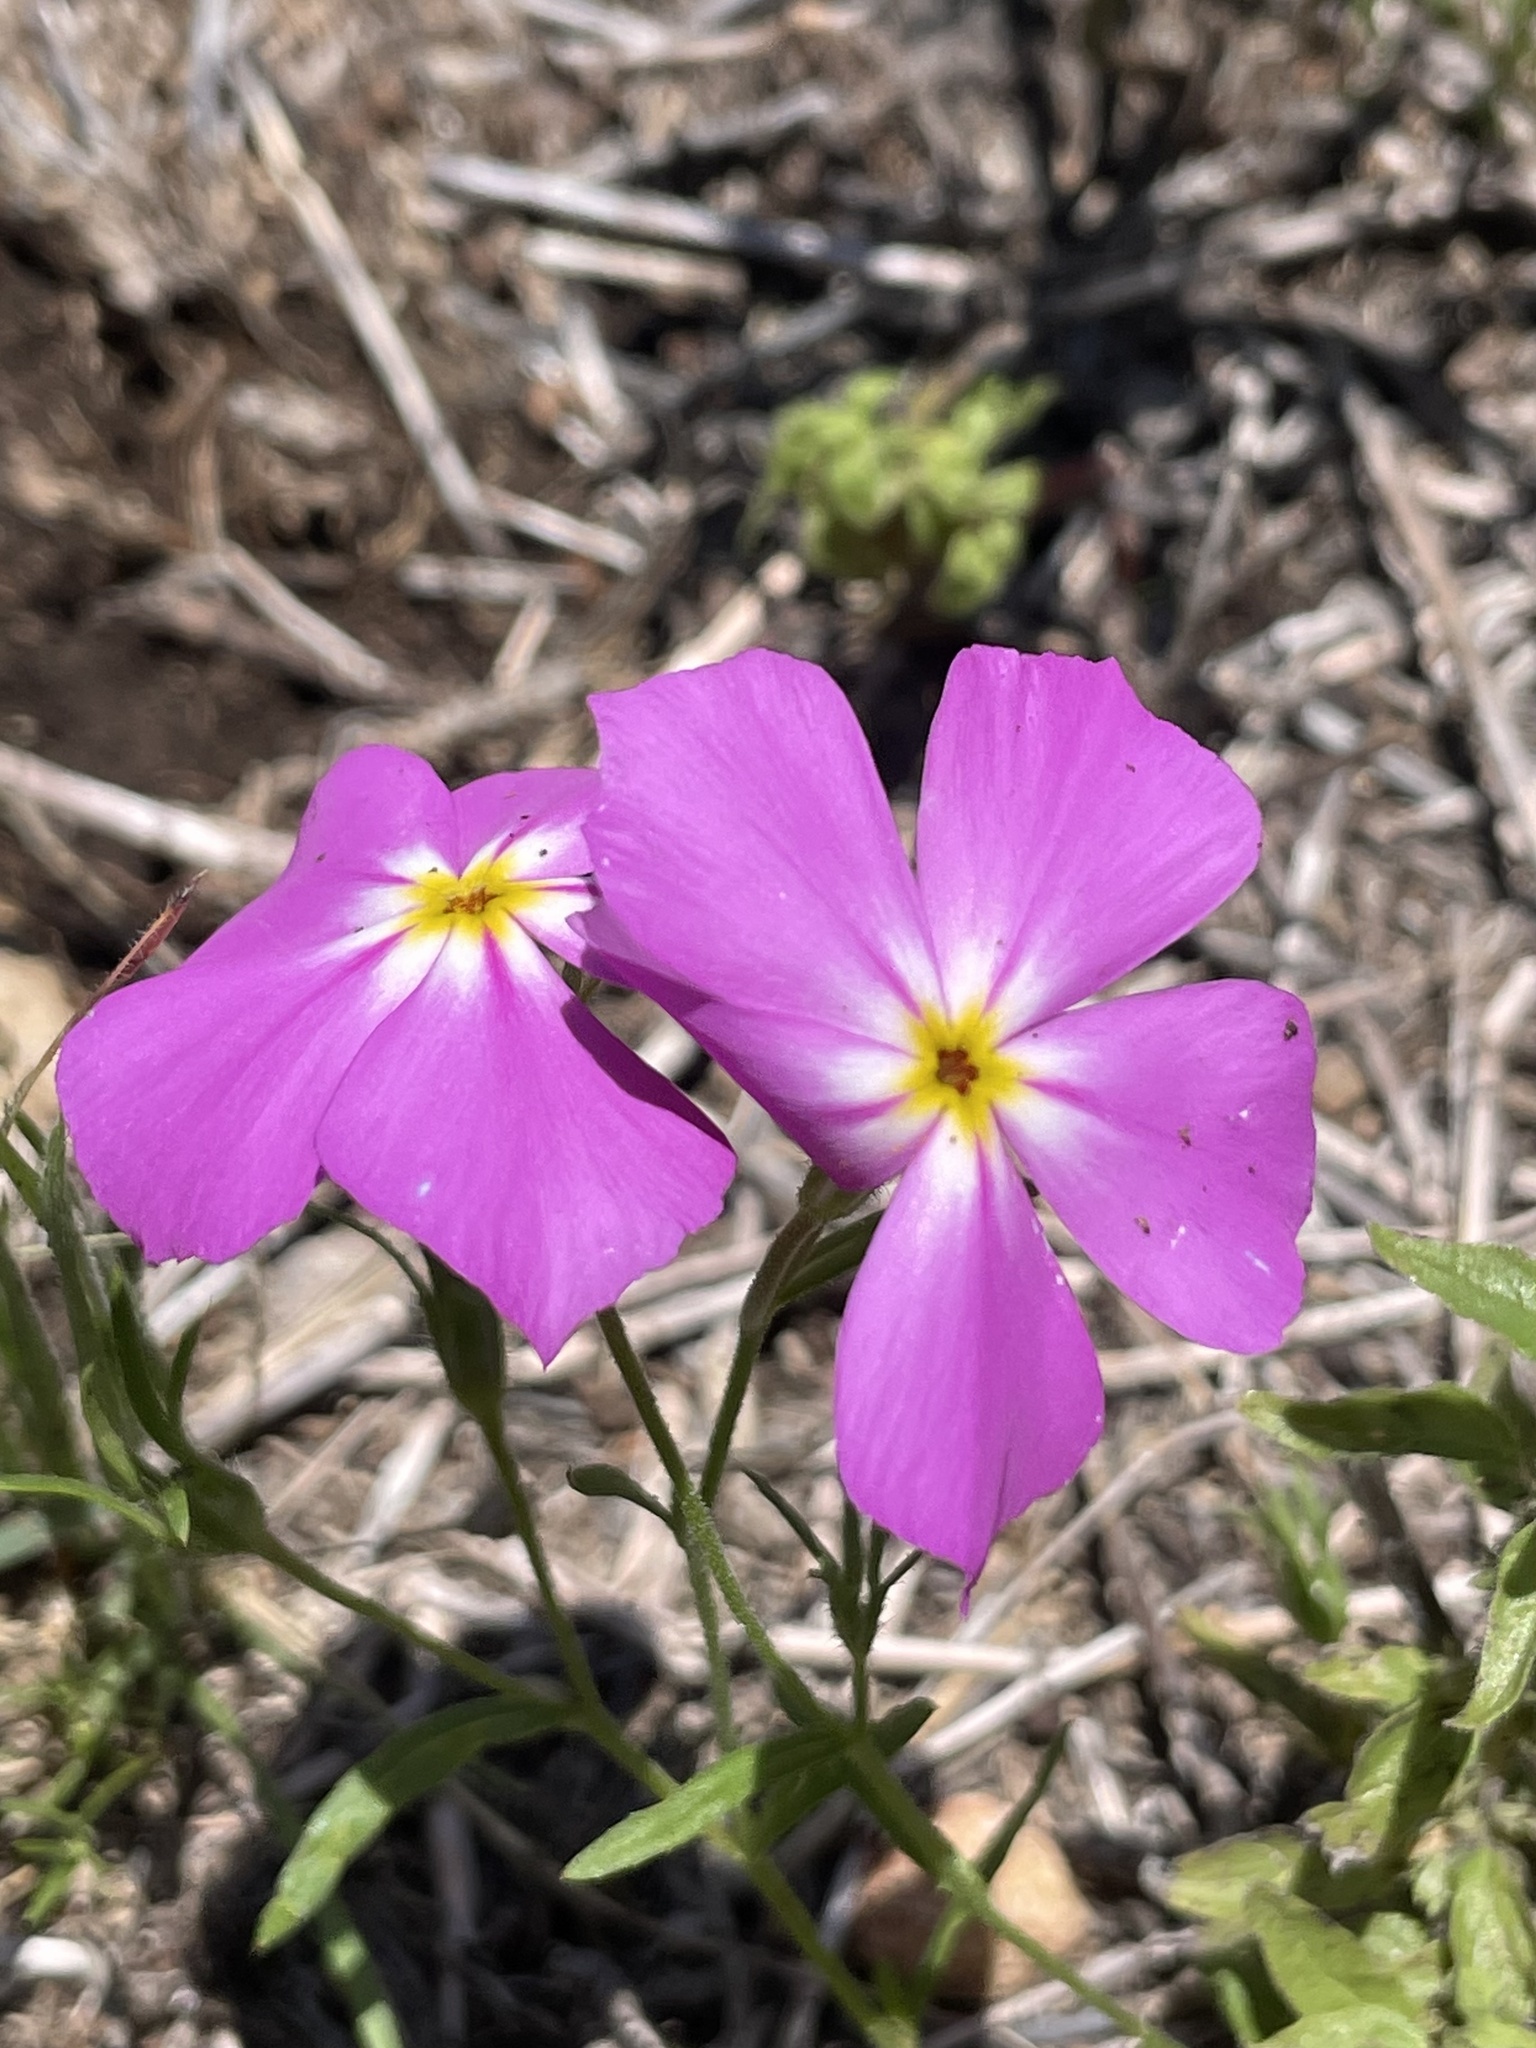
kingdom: Plantae
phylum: Tracheophyta
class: Magnoliopsida
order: Ericales
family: Polemoniaceae
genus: Phlox
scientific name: Phlox roemeriana
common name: Roemer's phlox
